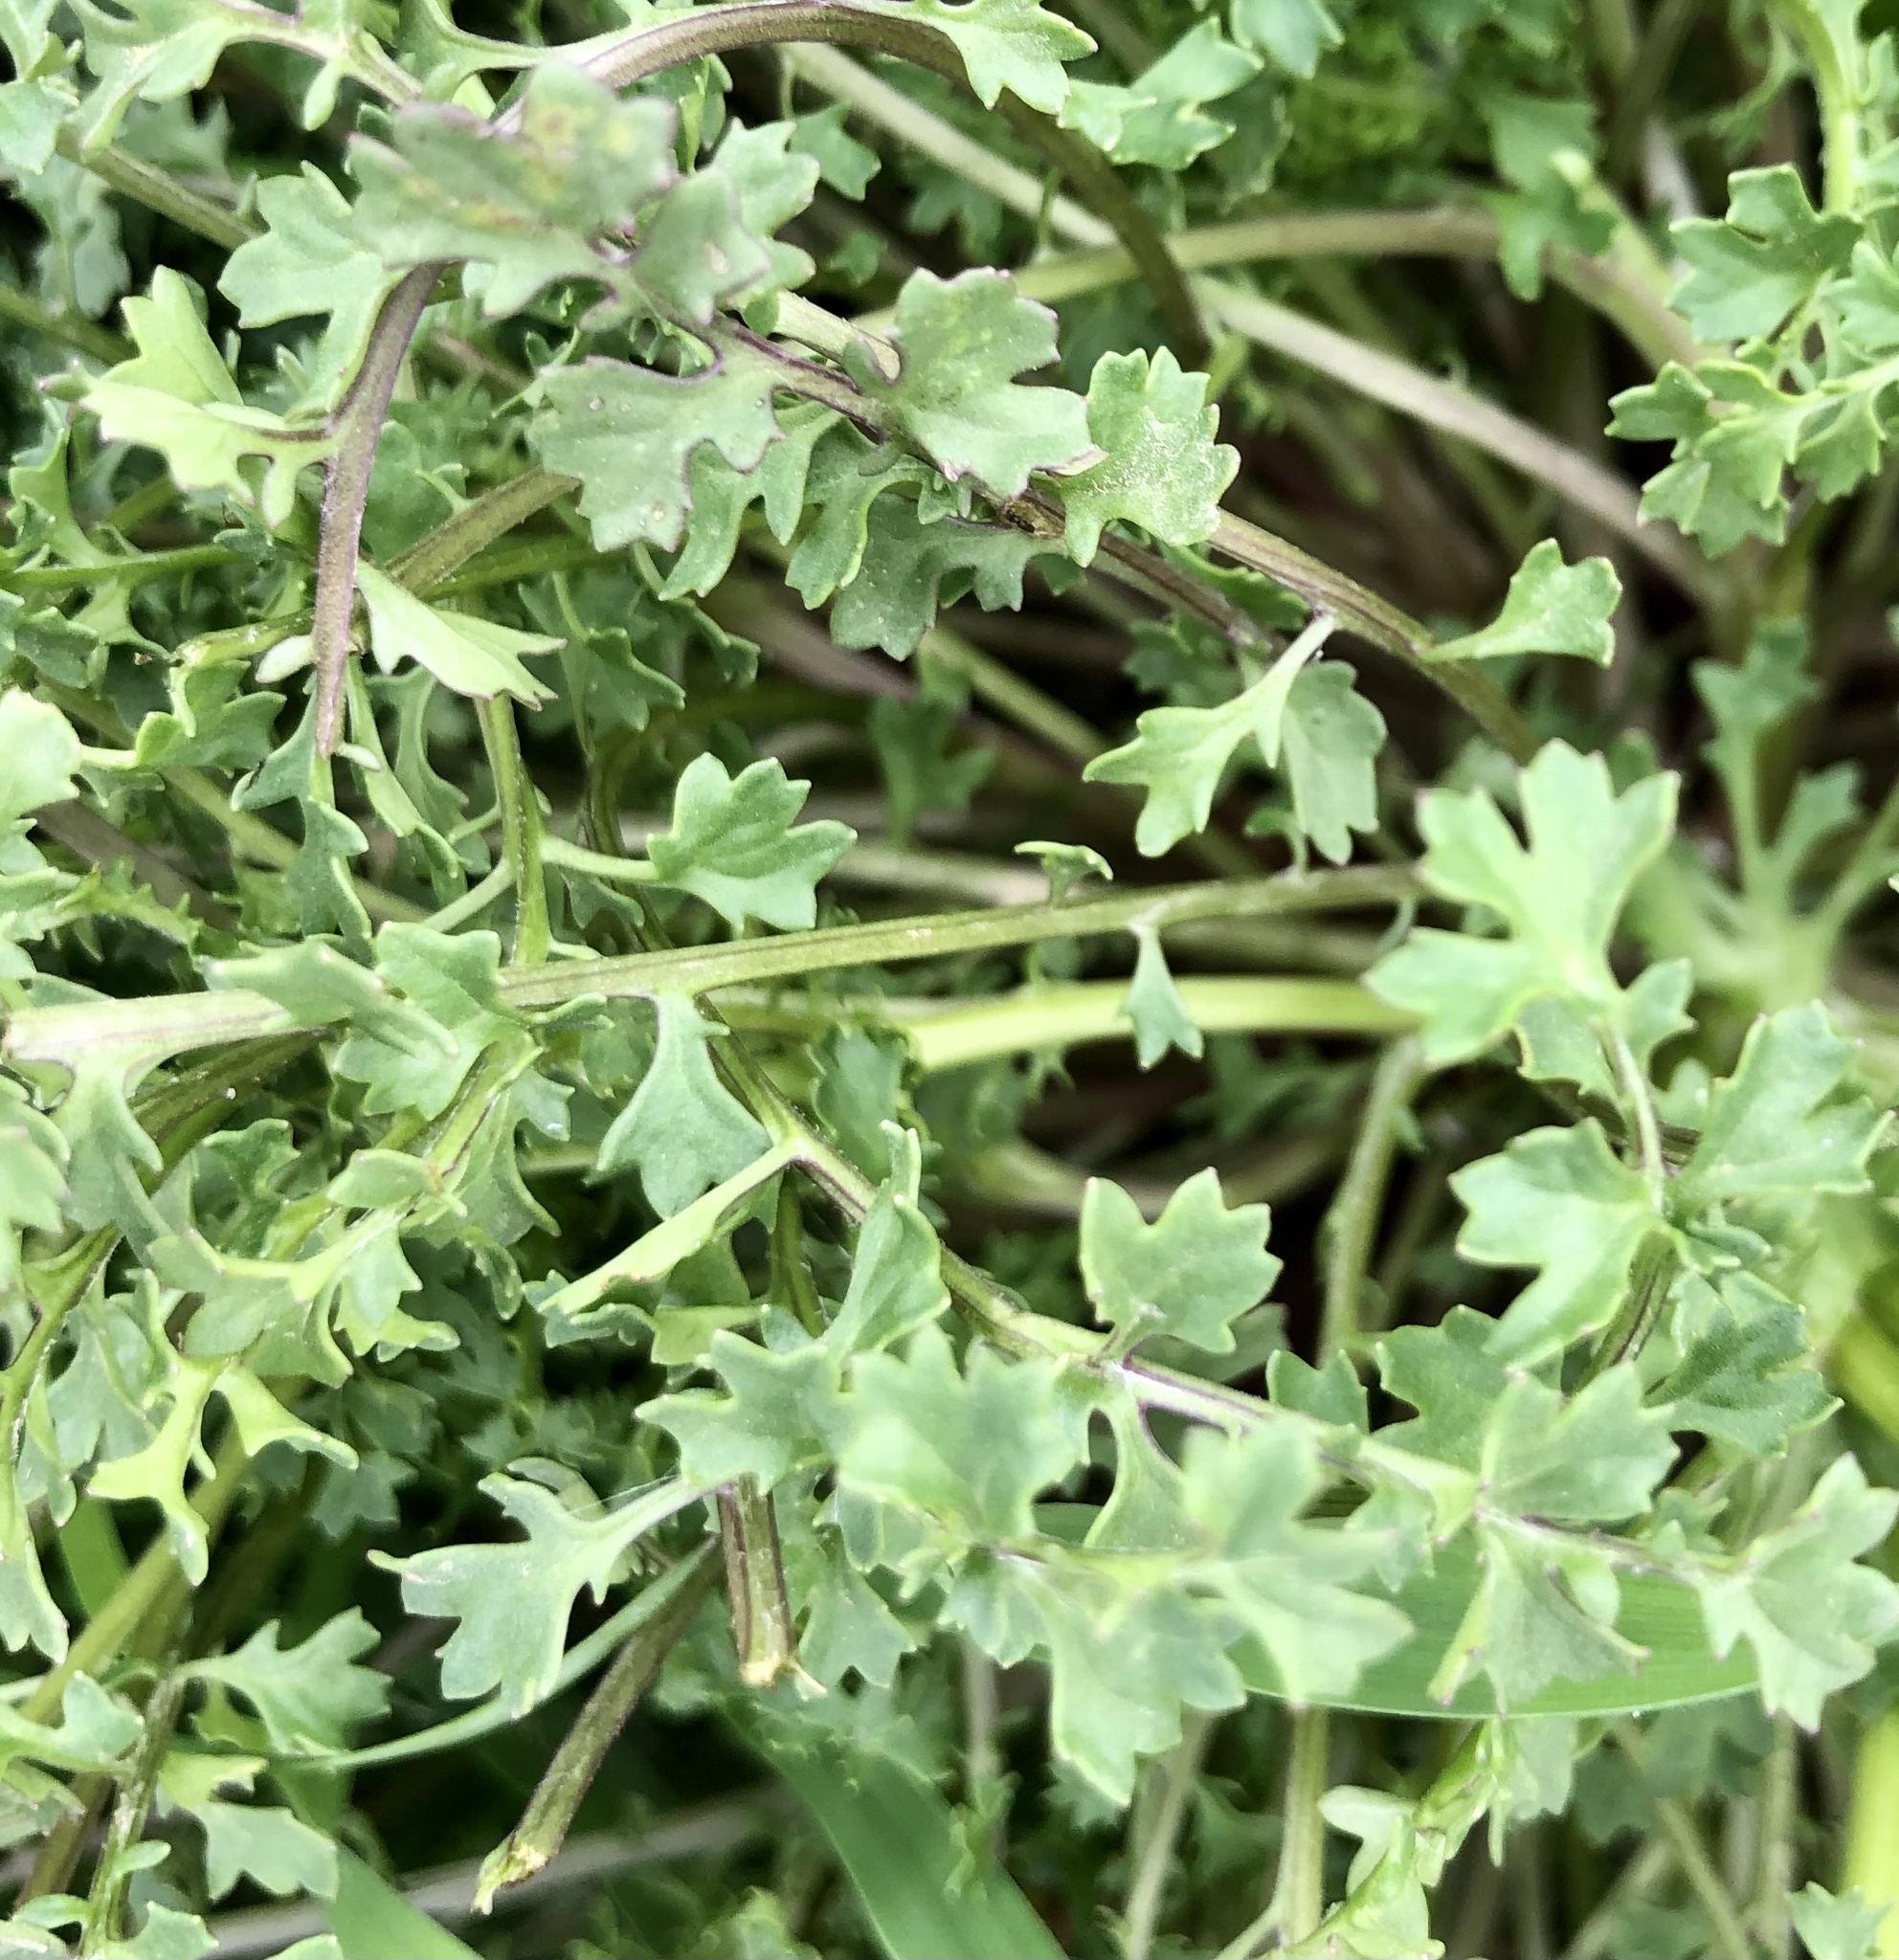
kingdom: Plantae
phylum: Tracheophyta
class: Magnoliopsida
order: Asterales
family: Asteraceae
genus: Packera
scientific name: Packera tampicana
